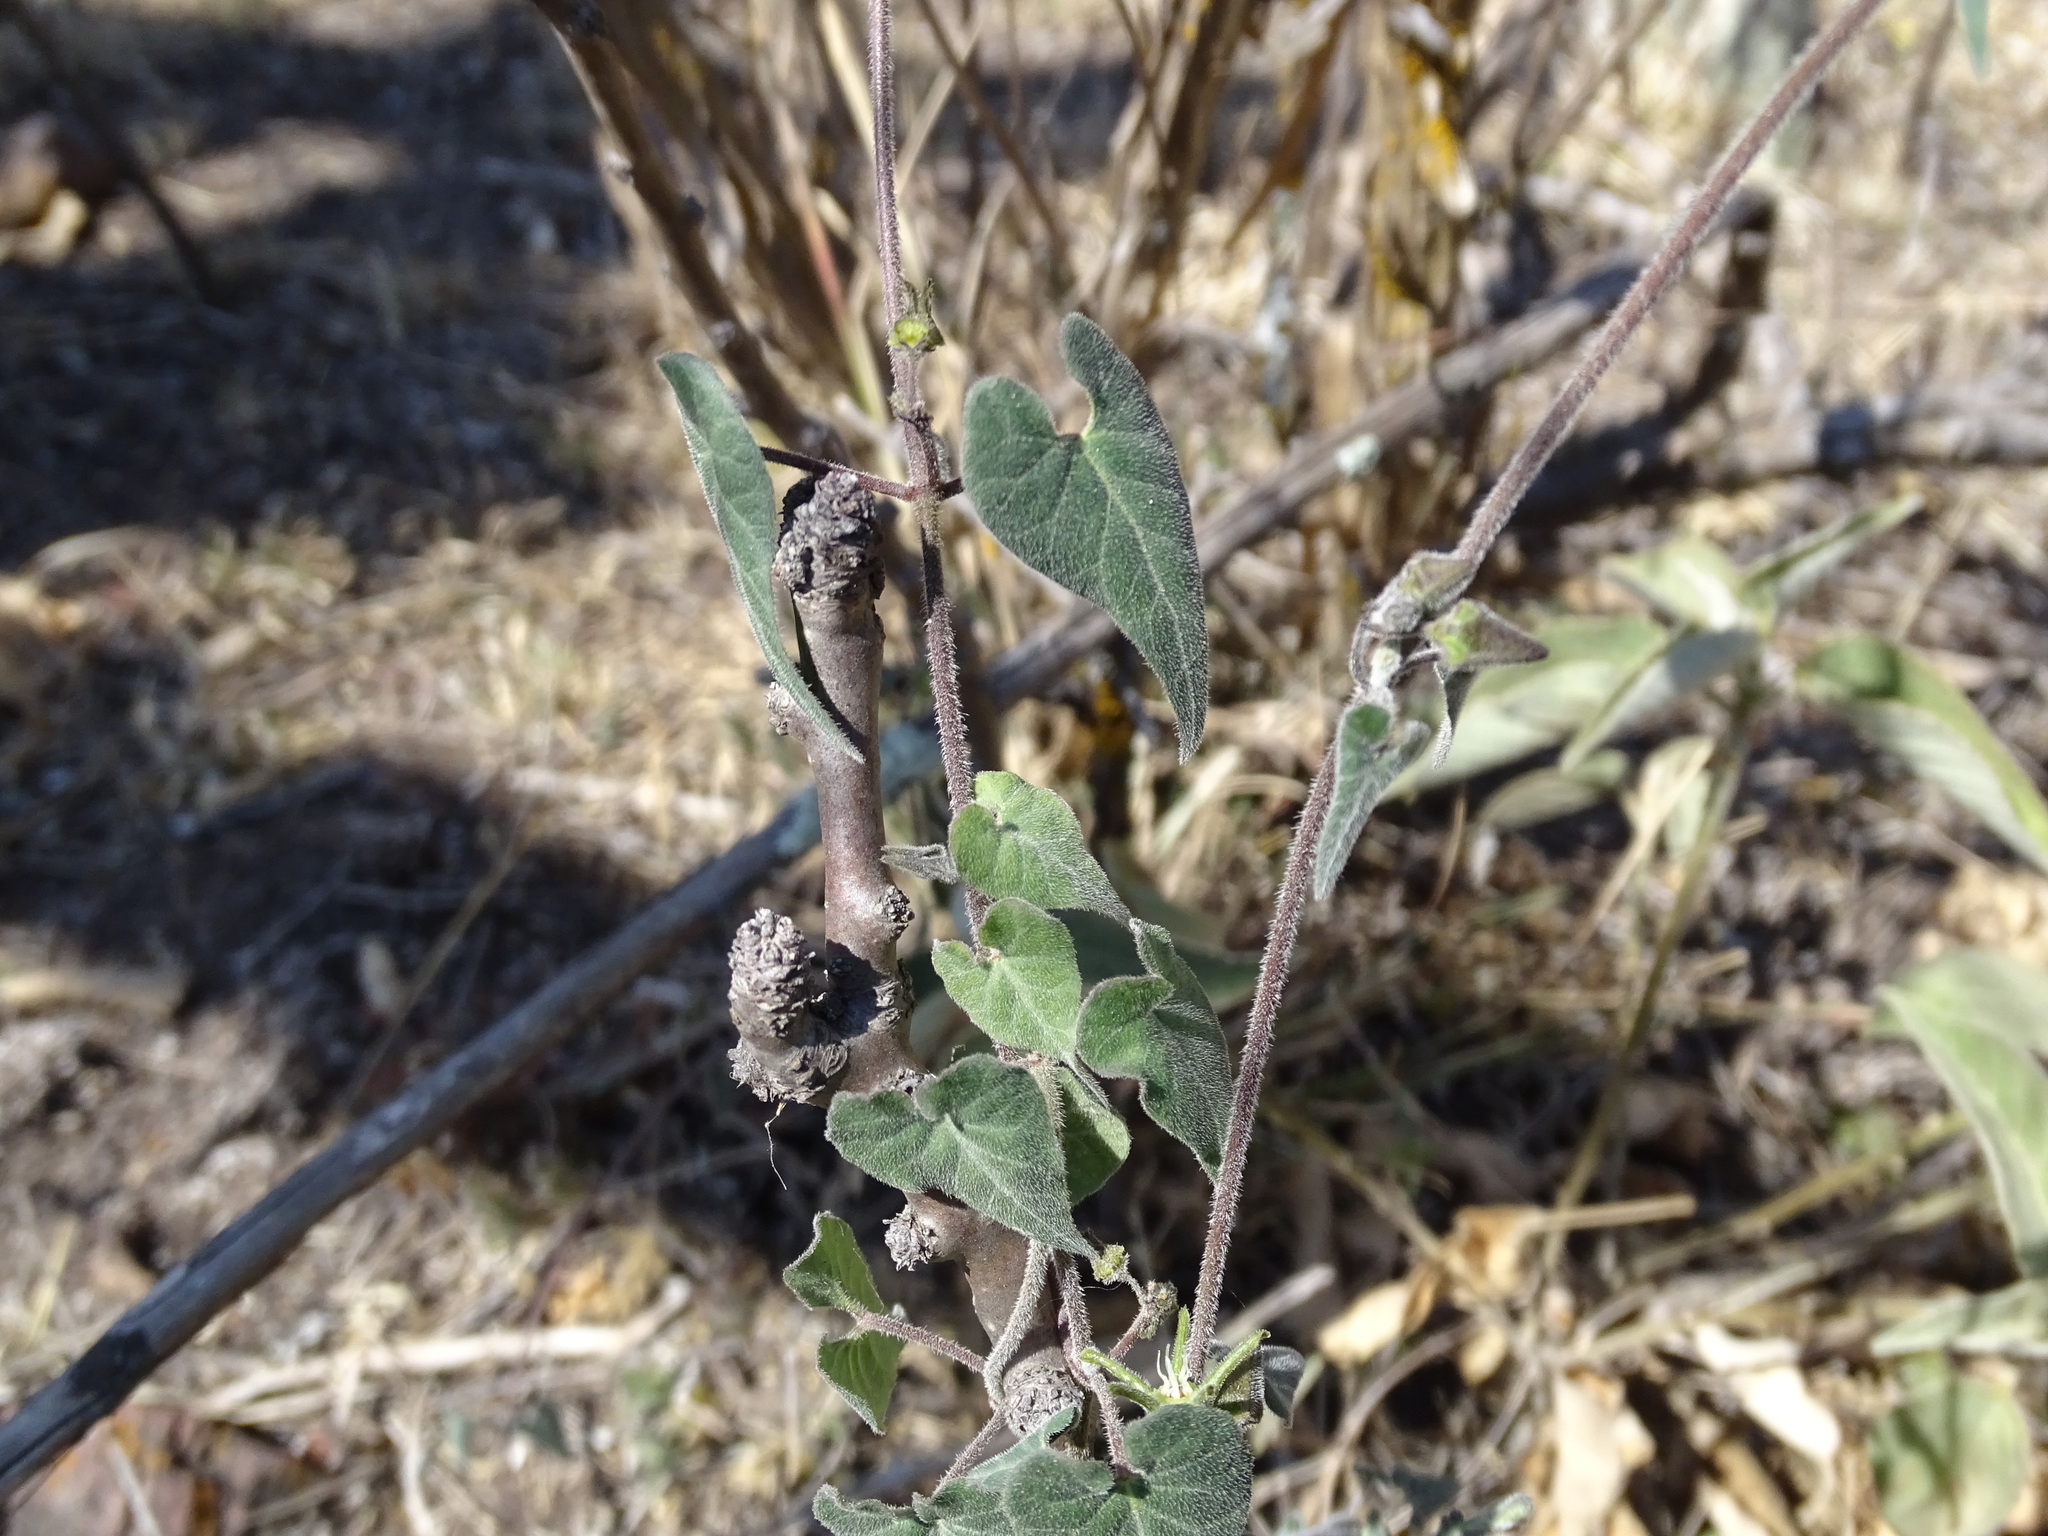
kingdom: Plantae
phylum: Tracheophyta
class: Magnoliopsida
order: Gentianales
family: Apocynaceae
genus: Chthamalia
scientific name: Chthamalia schaffneri
